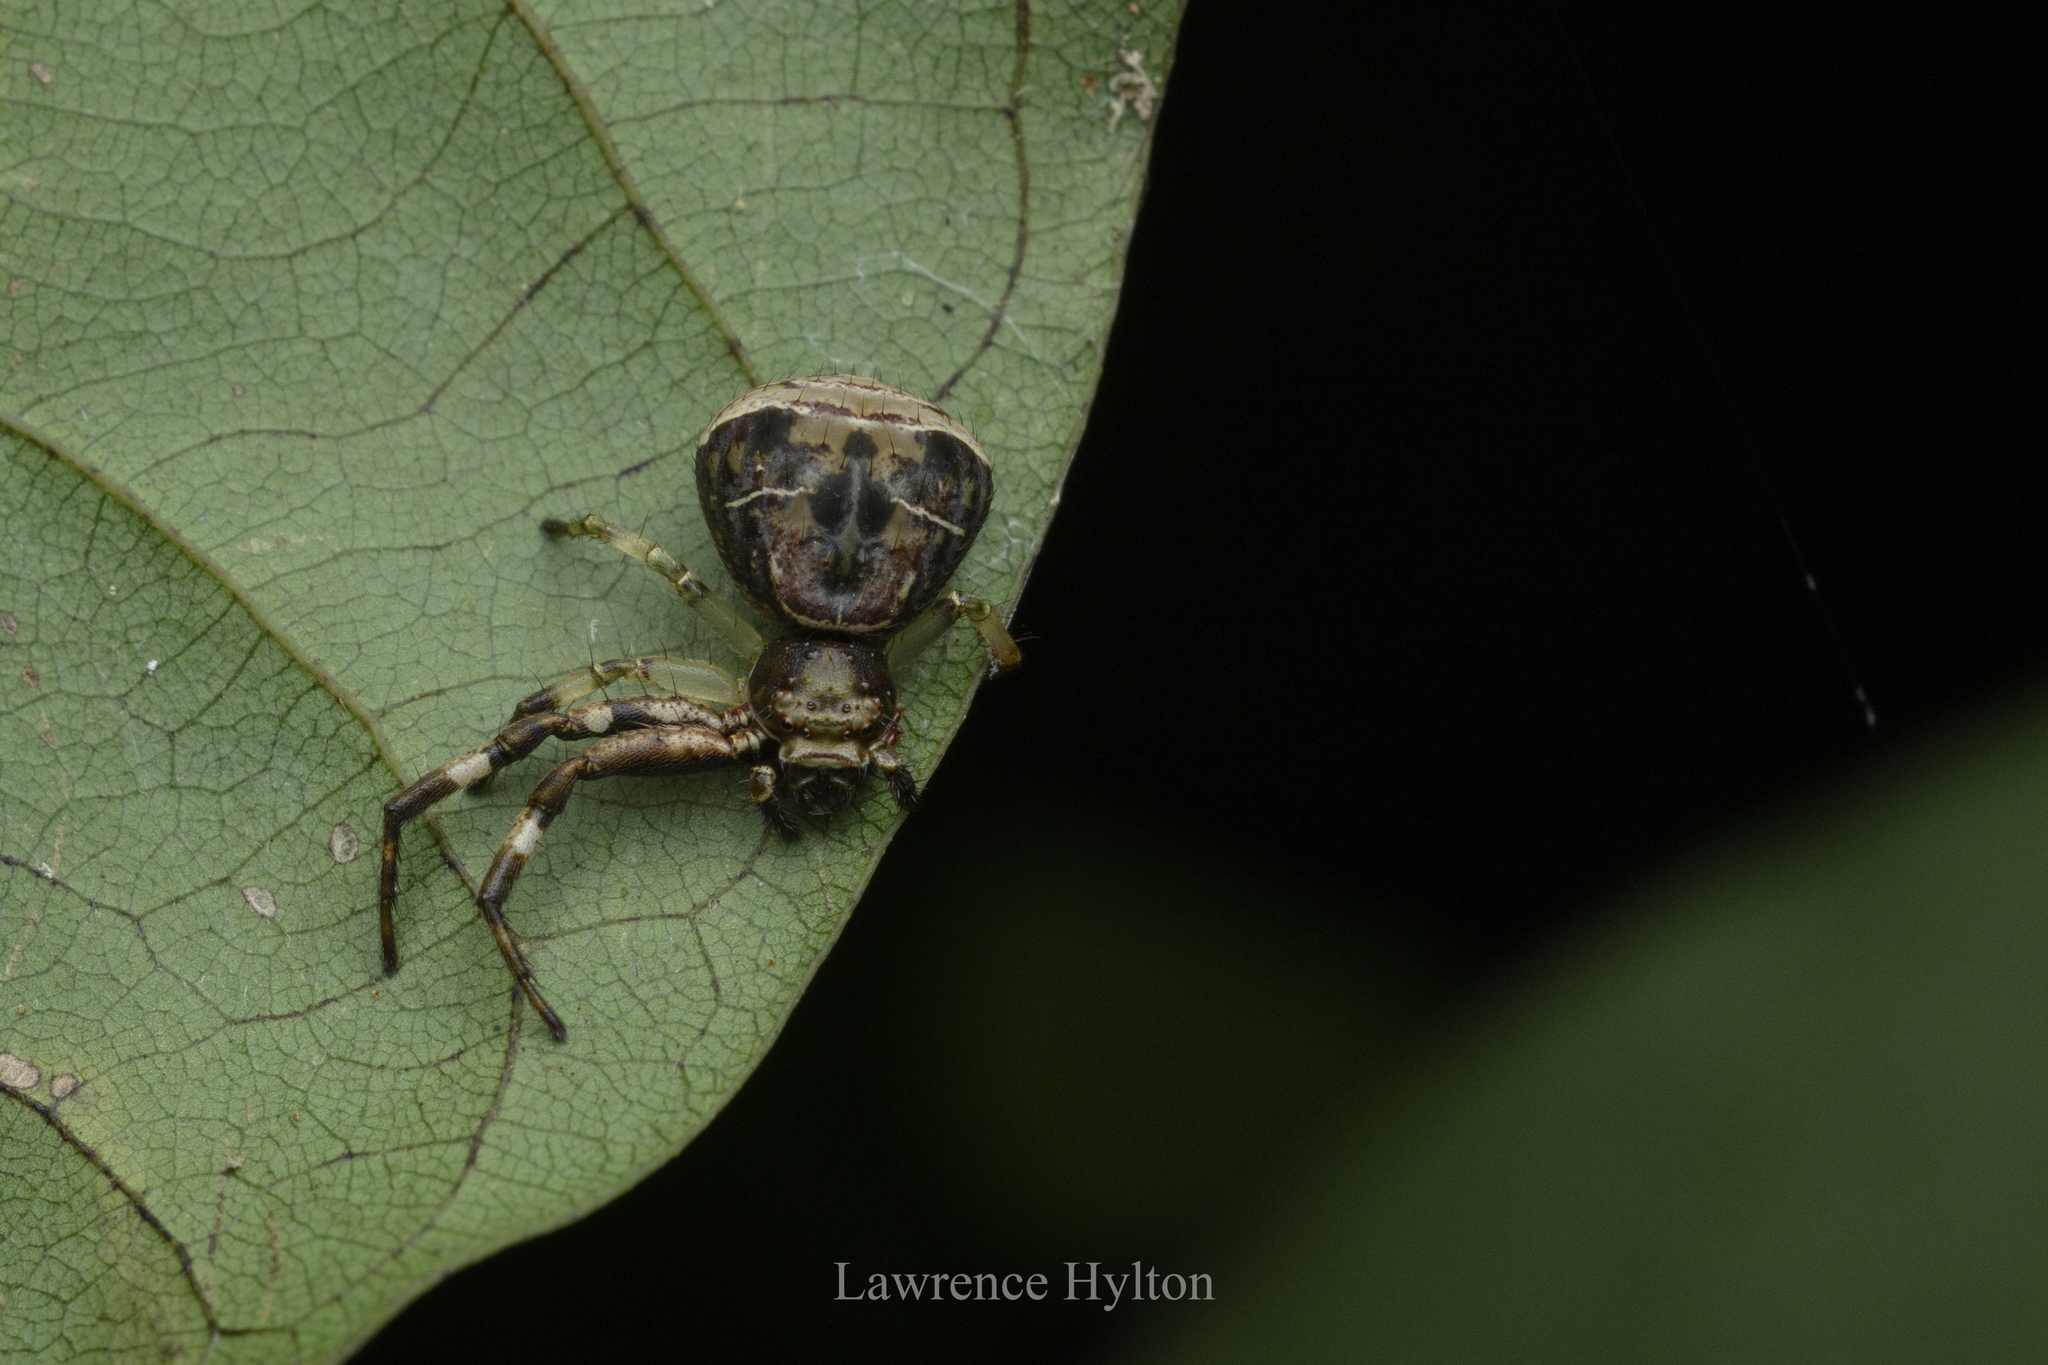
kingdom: Animalia
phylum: Arthropoda
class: Arachnida
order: Araneae
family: Thomisidae
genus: Strigoplus
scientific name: Strigoplus guizhouensis
